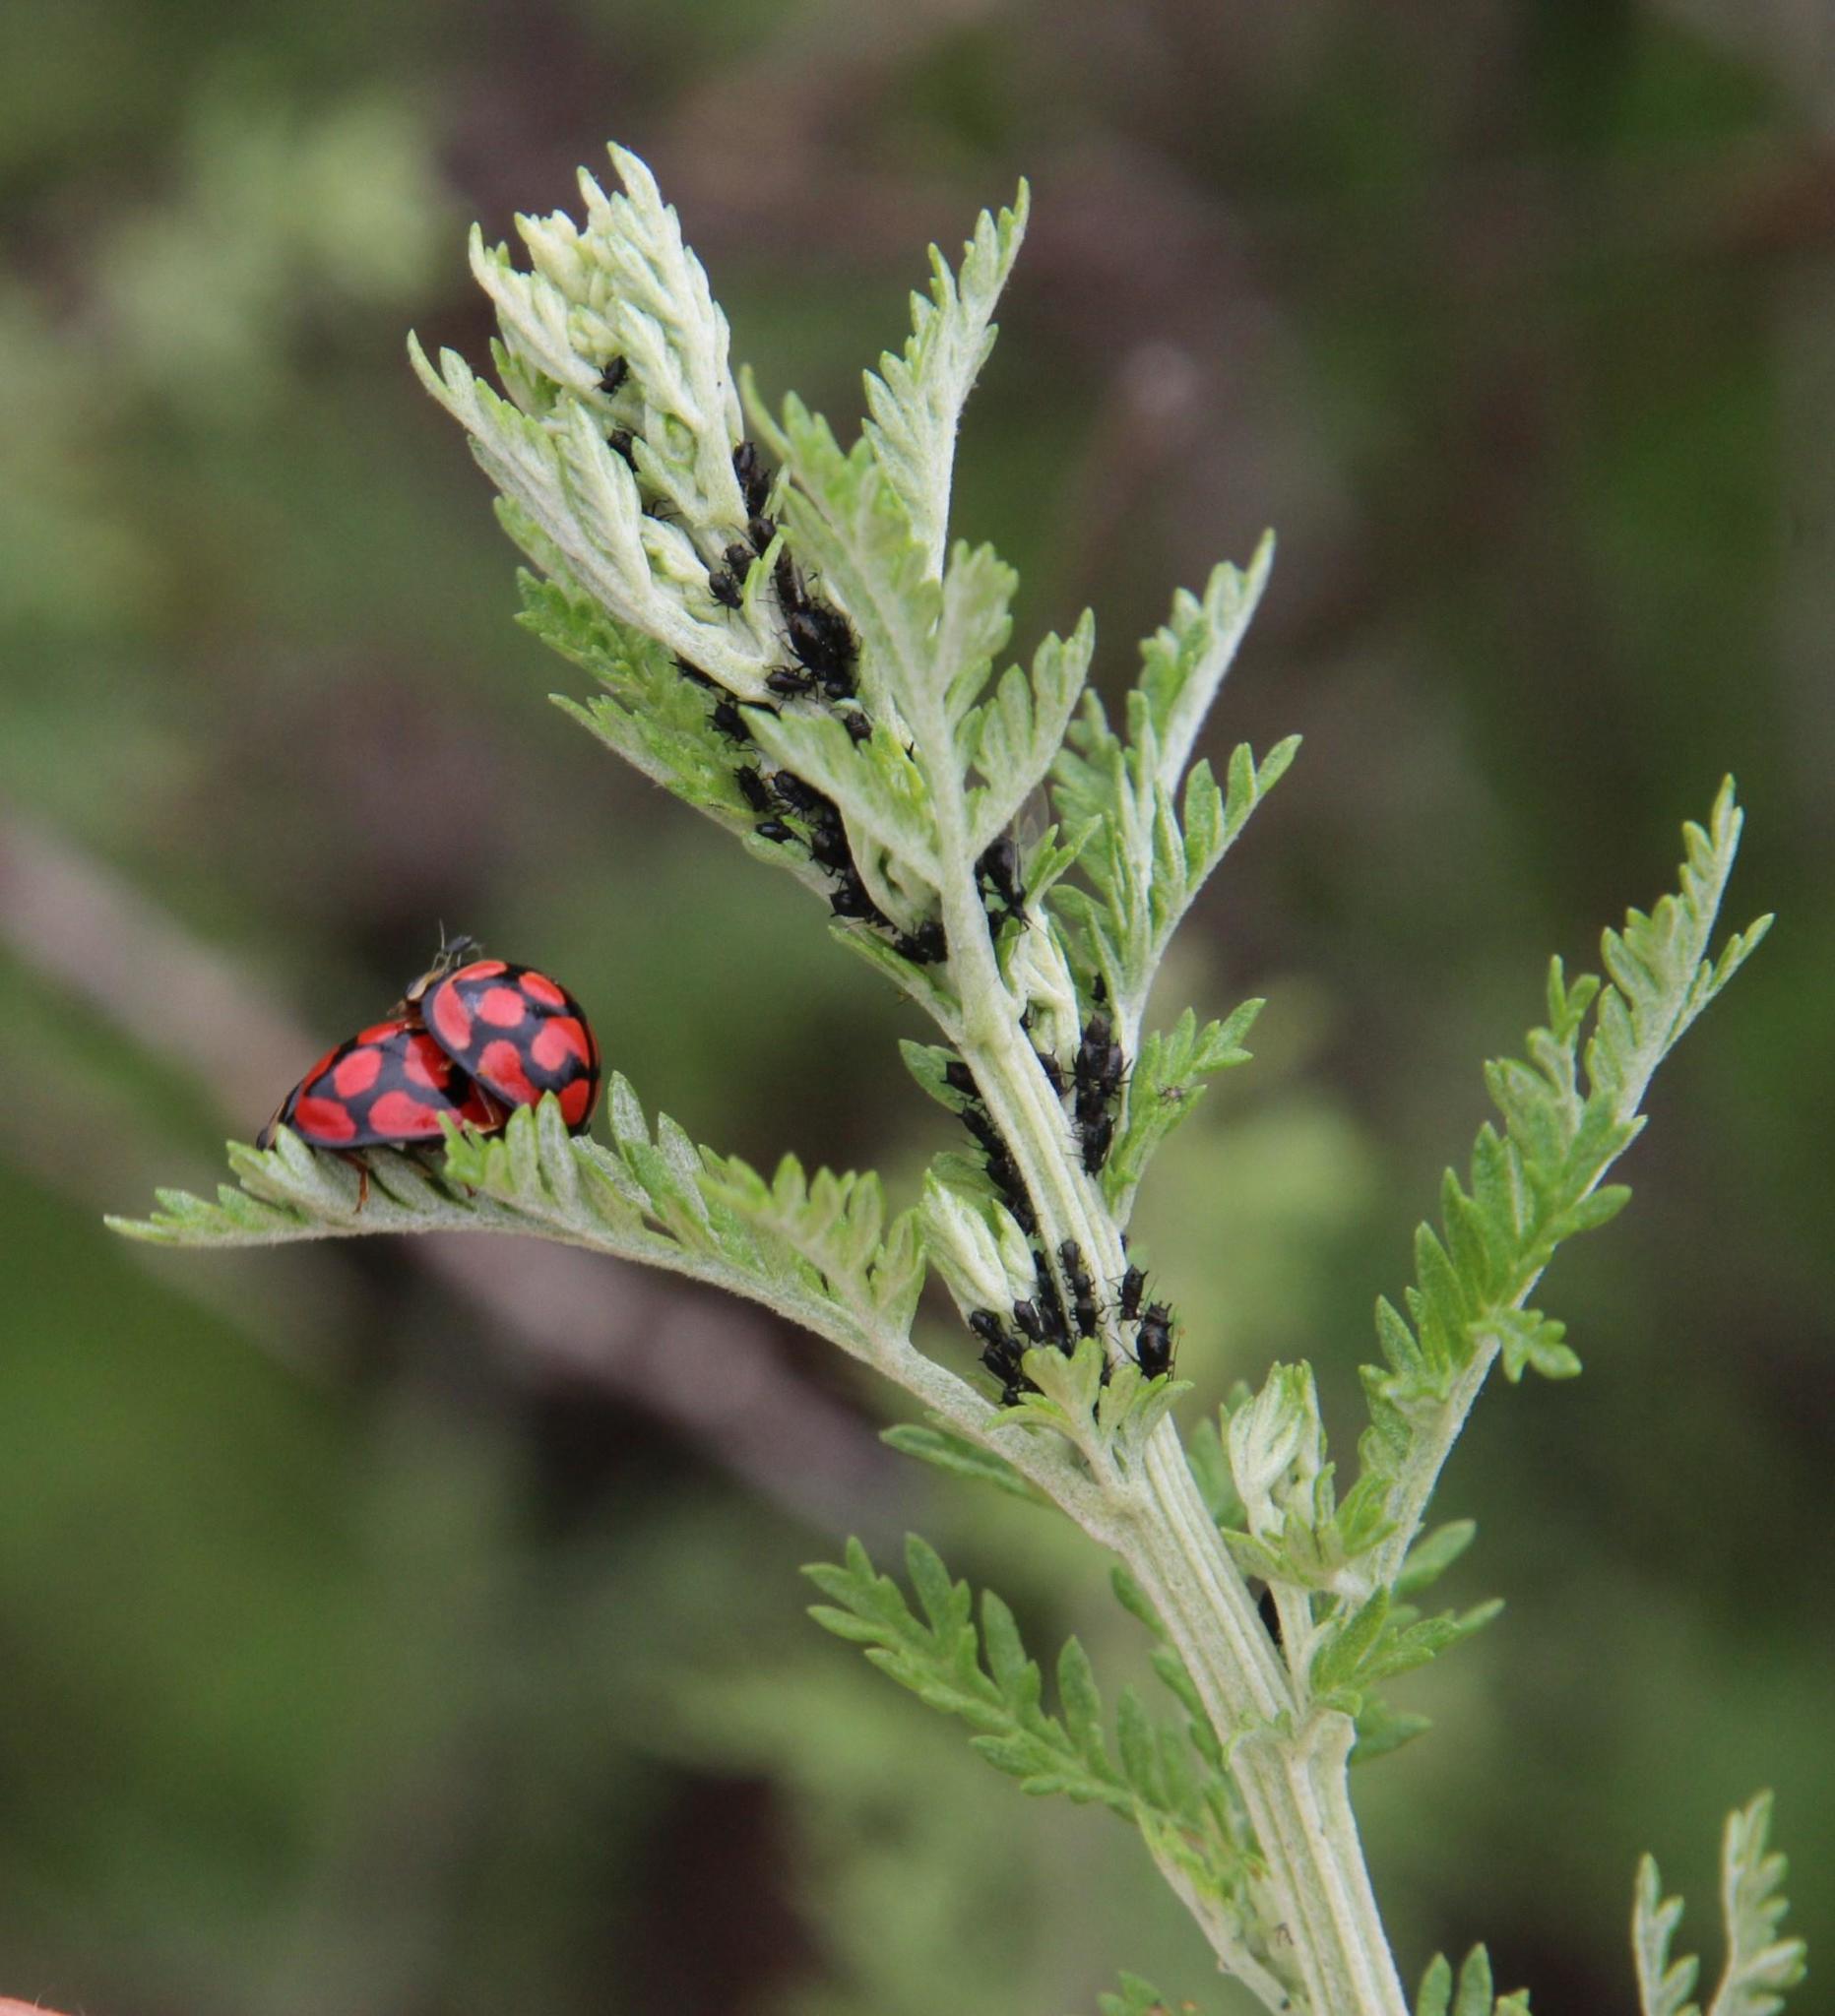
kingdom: Animalia
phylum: Arthropoda
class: Insecta
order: Coleoptera
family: Coccinellidae
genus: Cheilomenes
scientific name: Cheilomenes lunata
